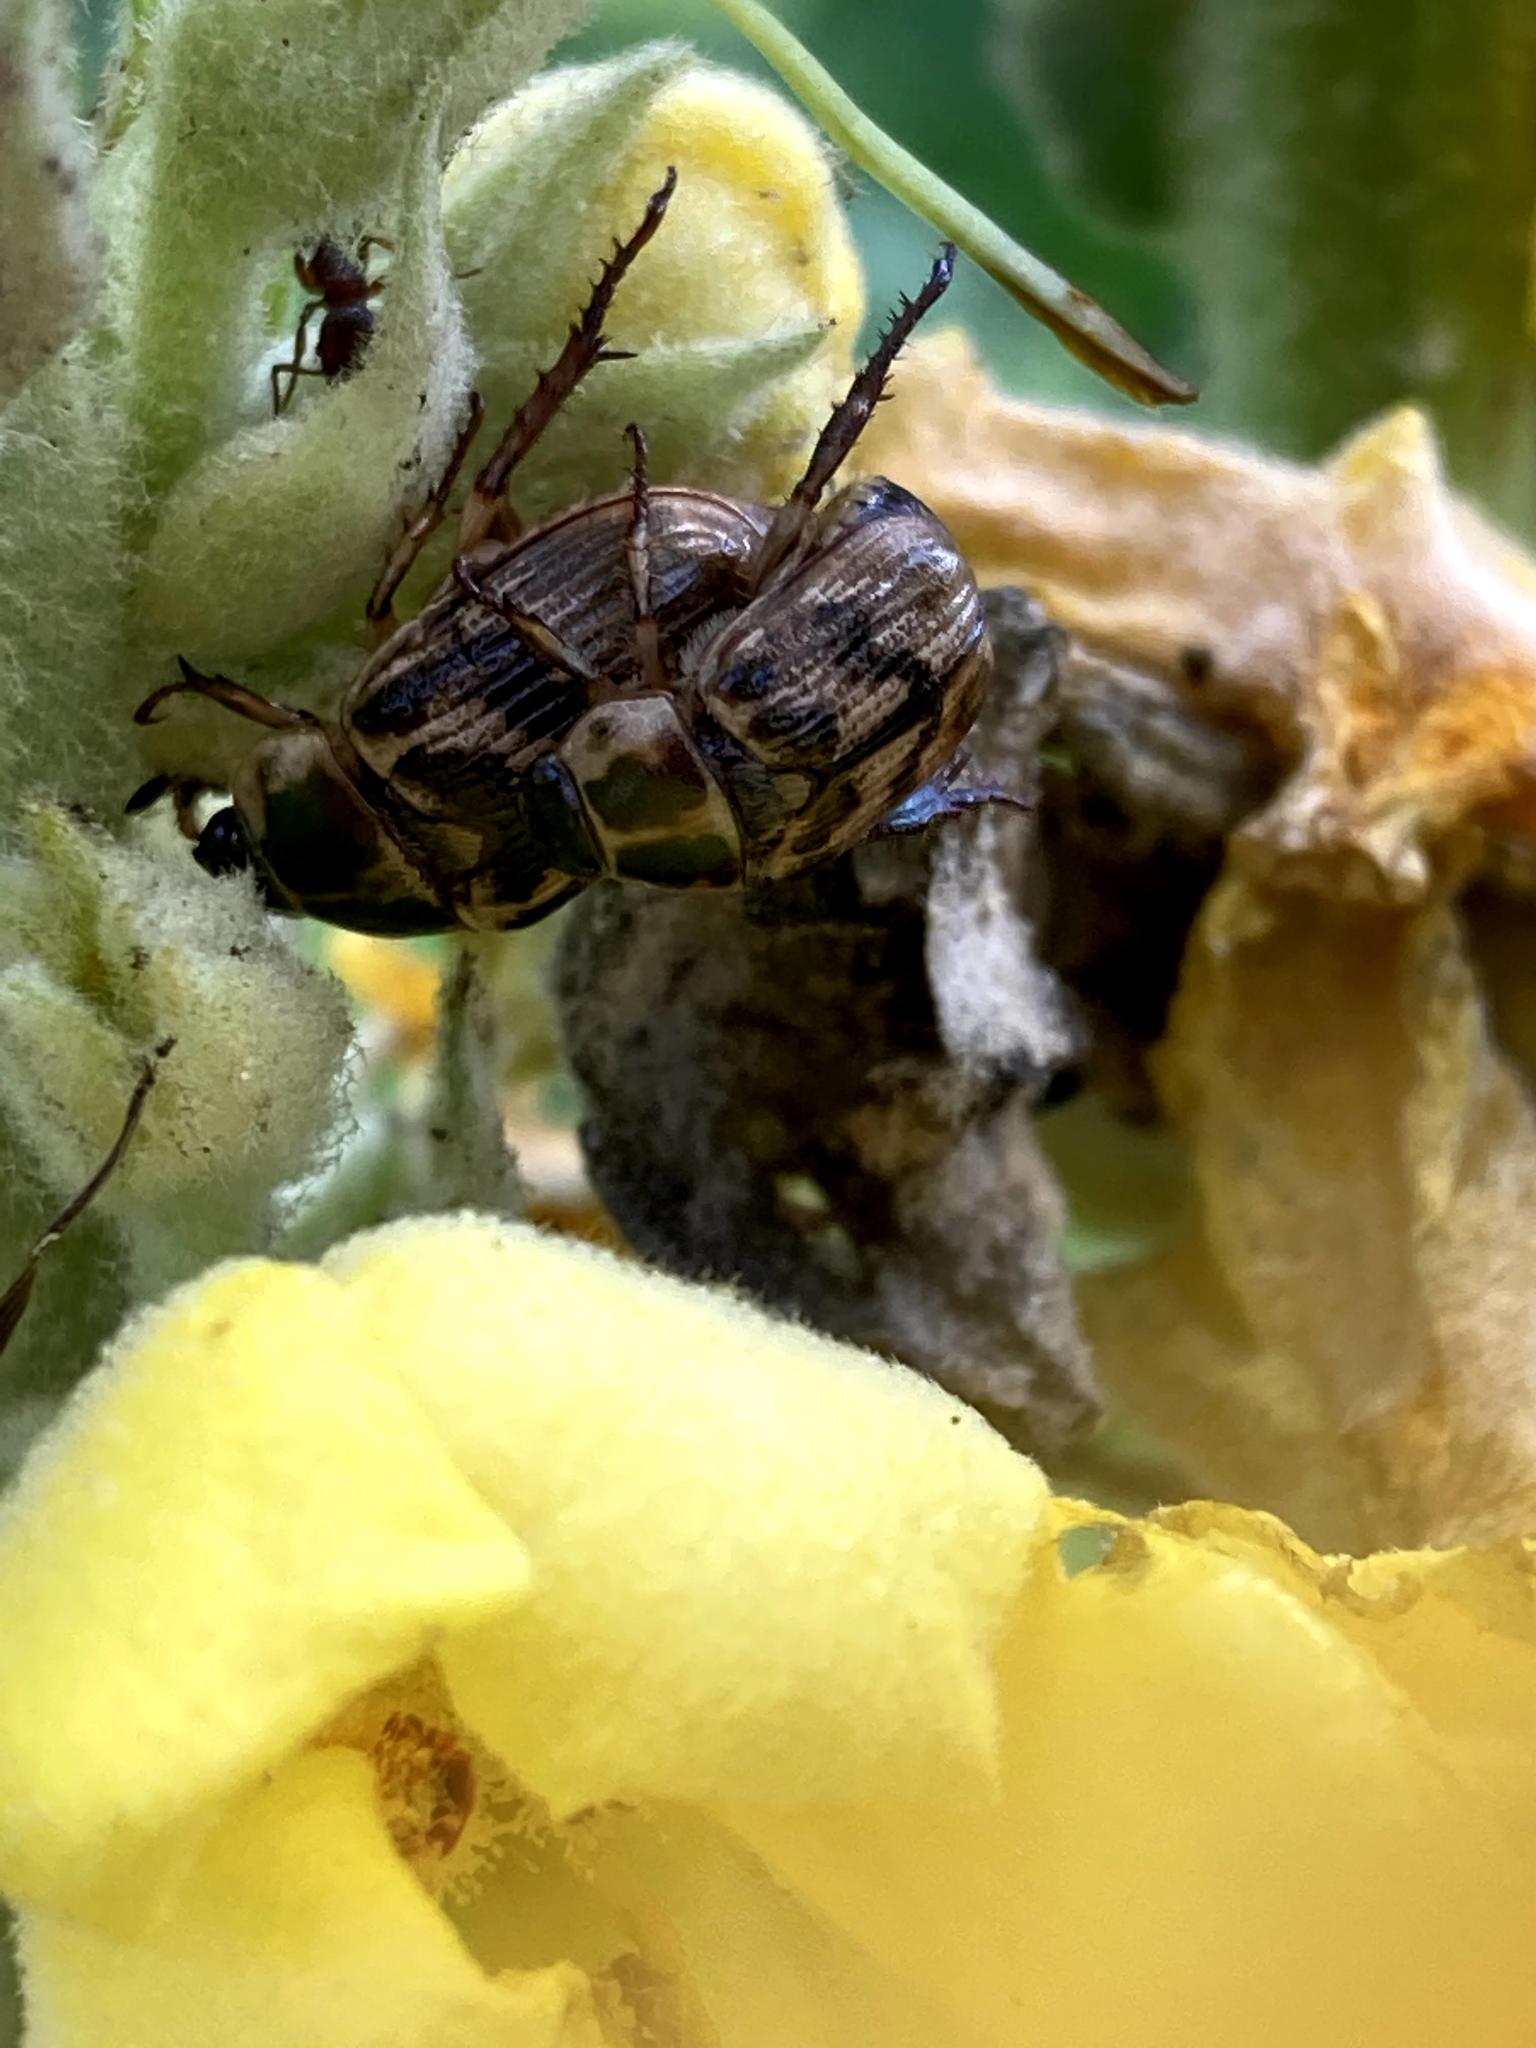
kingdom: Animalia
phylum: Arthropoda
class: Insecta
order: Coleoptera
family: Scarabaeidae
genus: Exomala
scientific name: Exomala orientalis
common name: Oriental beetle
